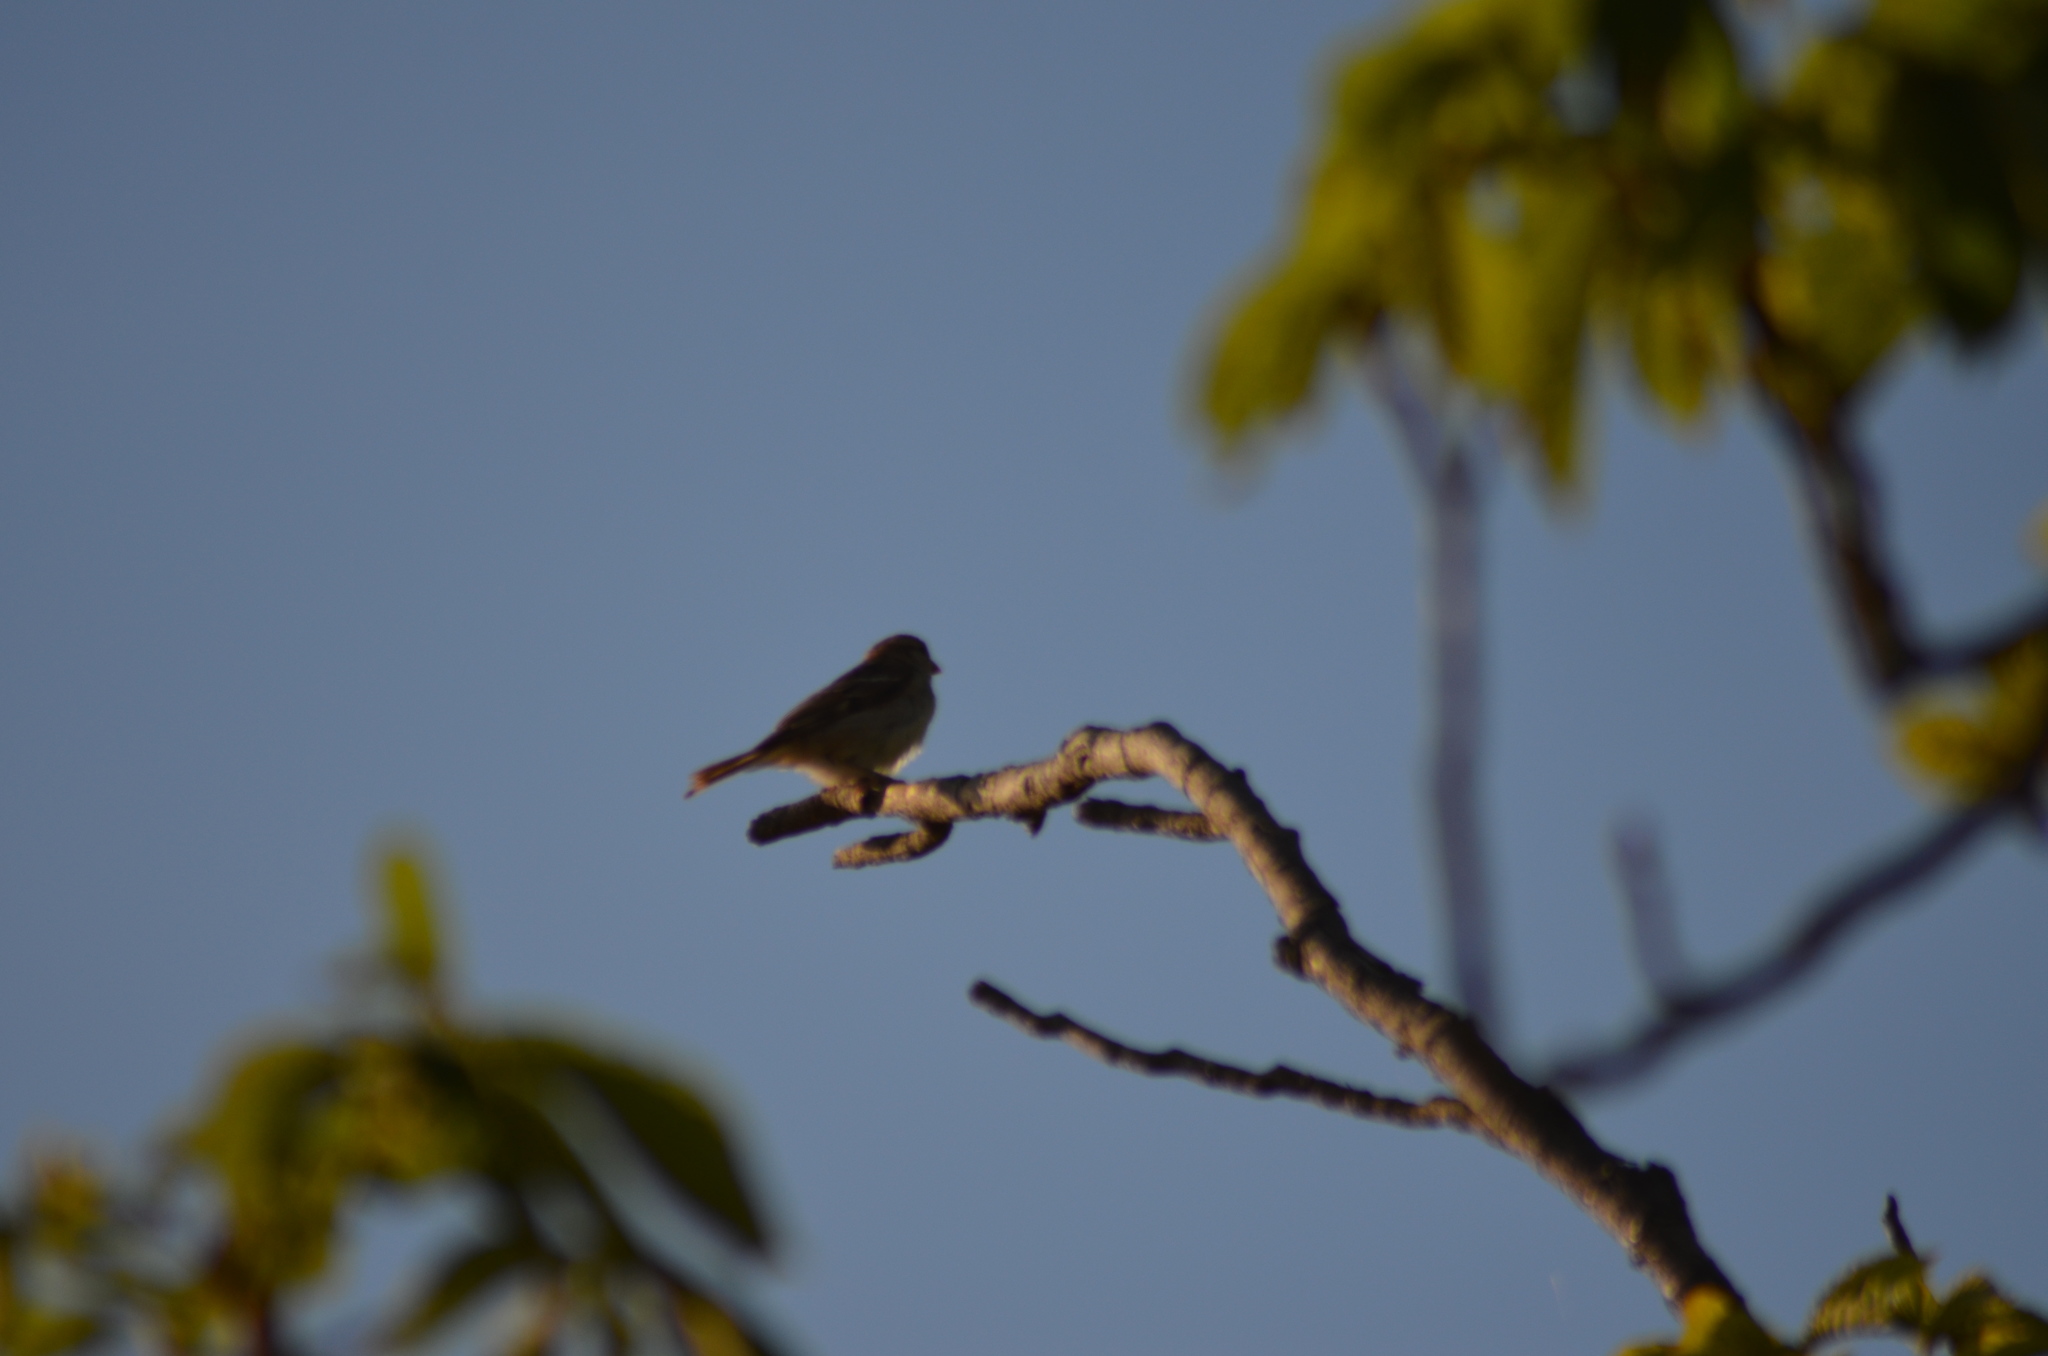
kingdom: Animalia
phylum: Chordata
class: Aves
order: Passeriformes
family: Passeridae
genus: Passer
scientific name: Passer domesticus
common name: House sparrow
